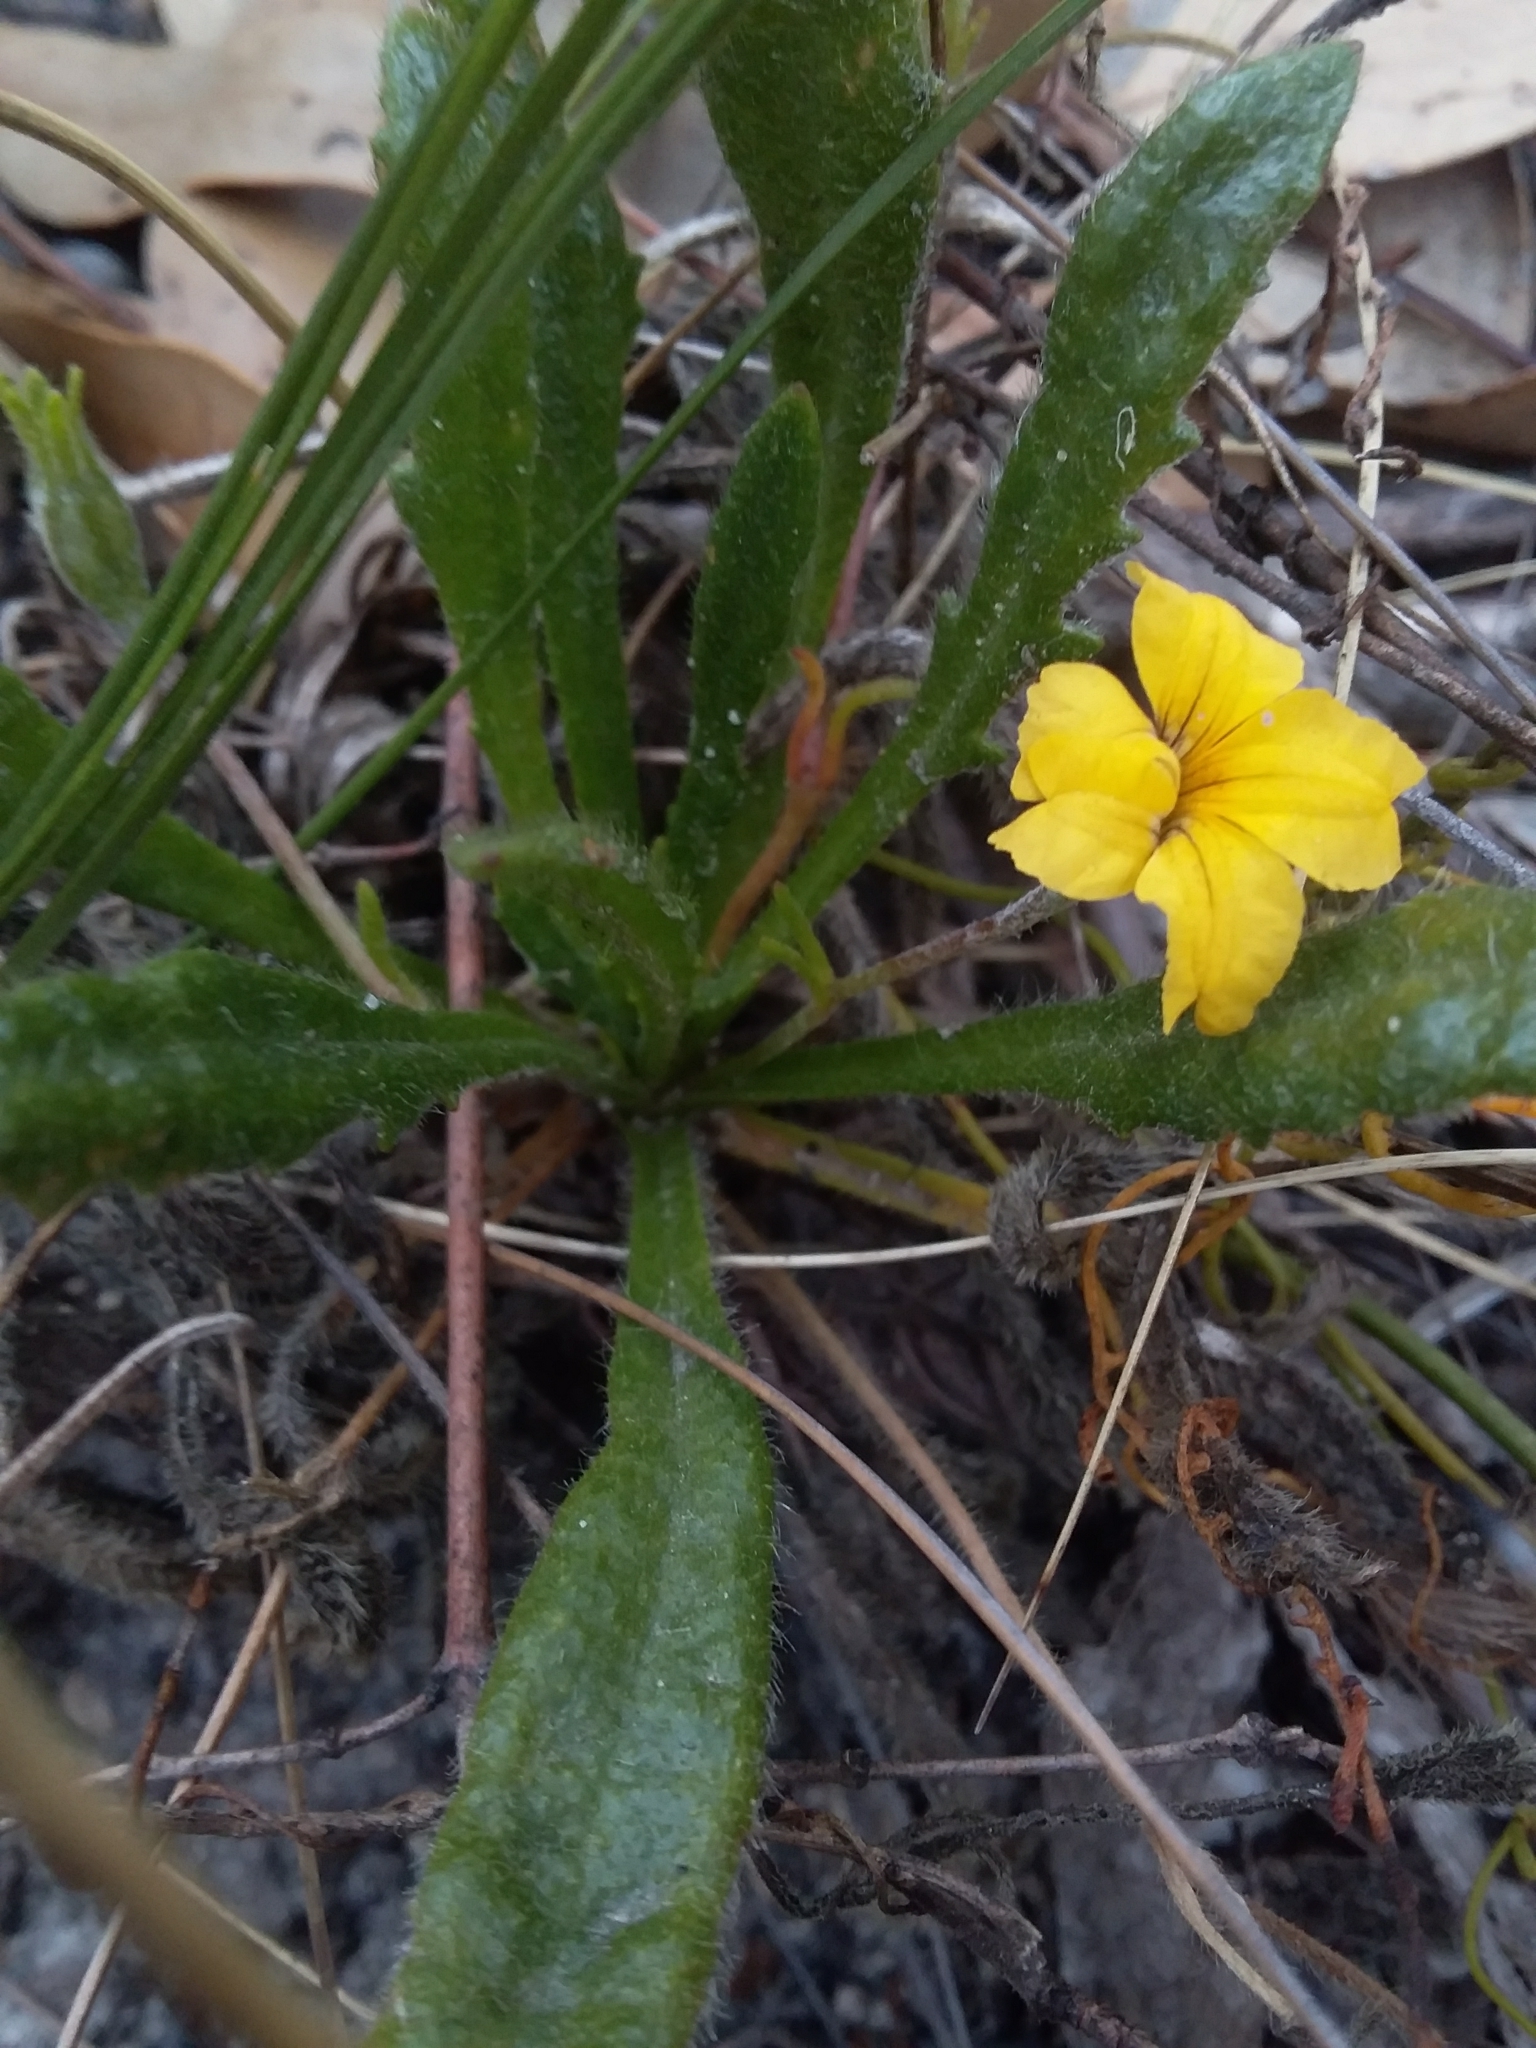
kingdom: Plantae
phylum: Tracheophyta
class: Magnoliopsida
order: Asterales
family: Goodeniaceae
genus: Goodenia
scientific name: Goodenia geniculata
